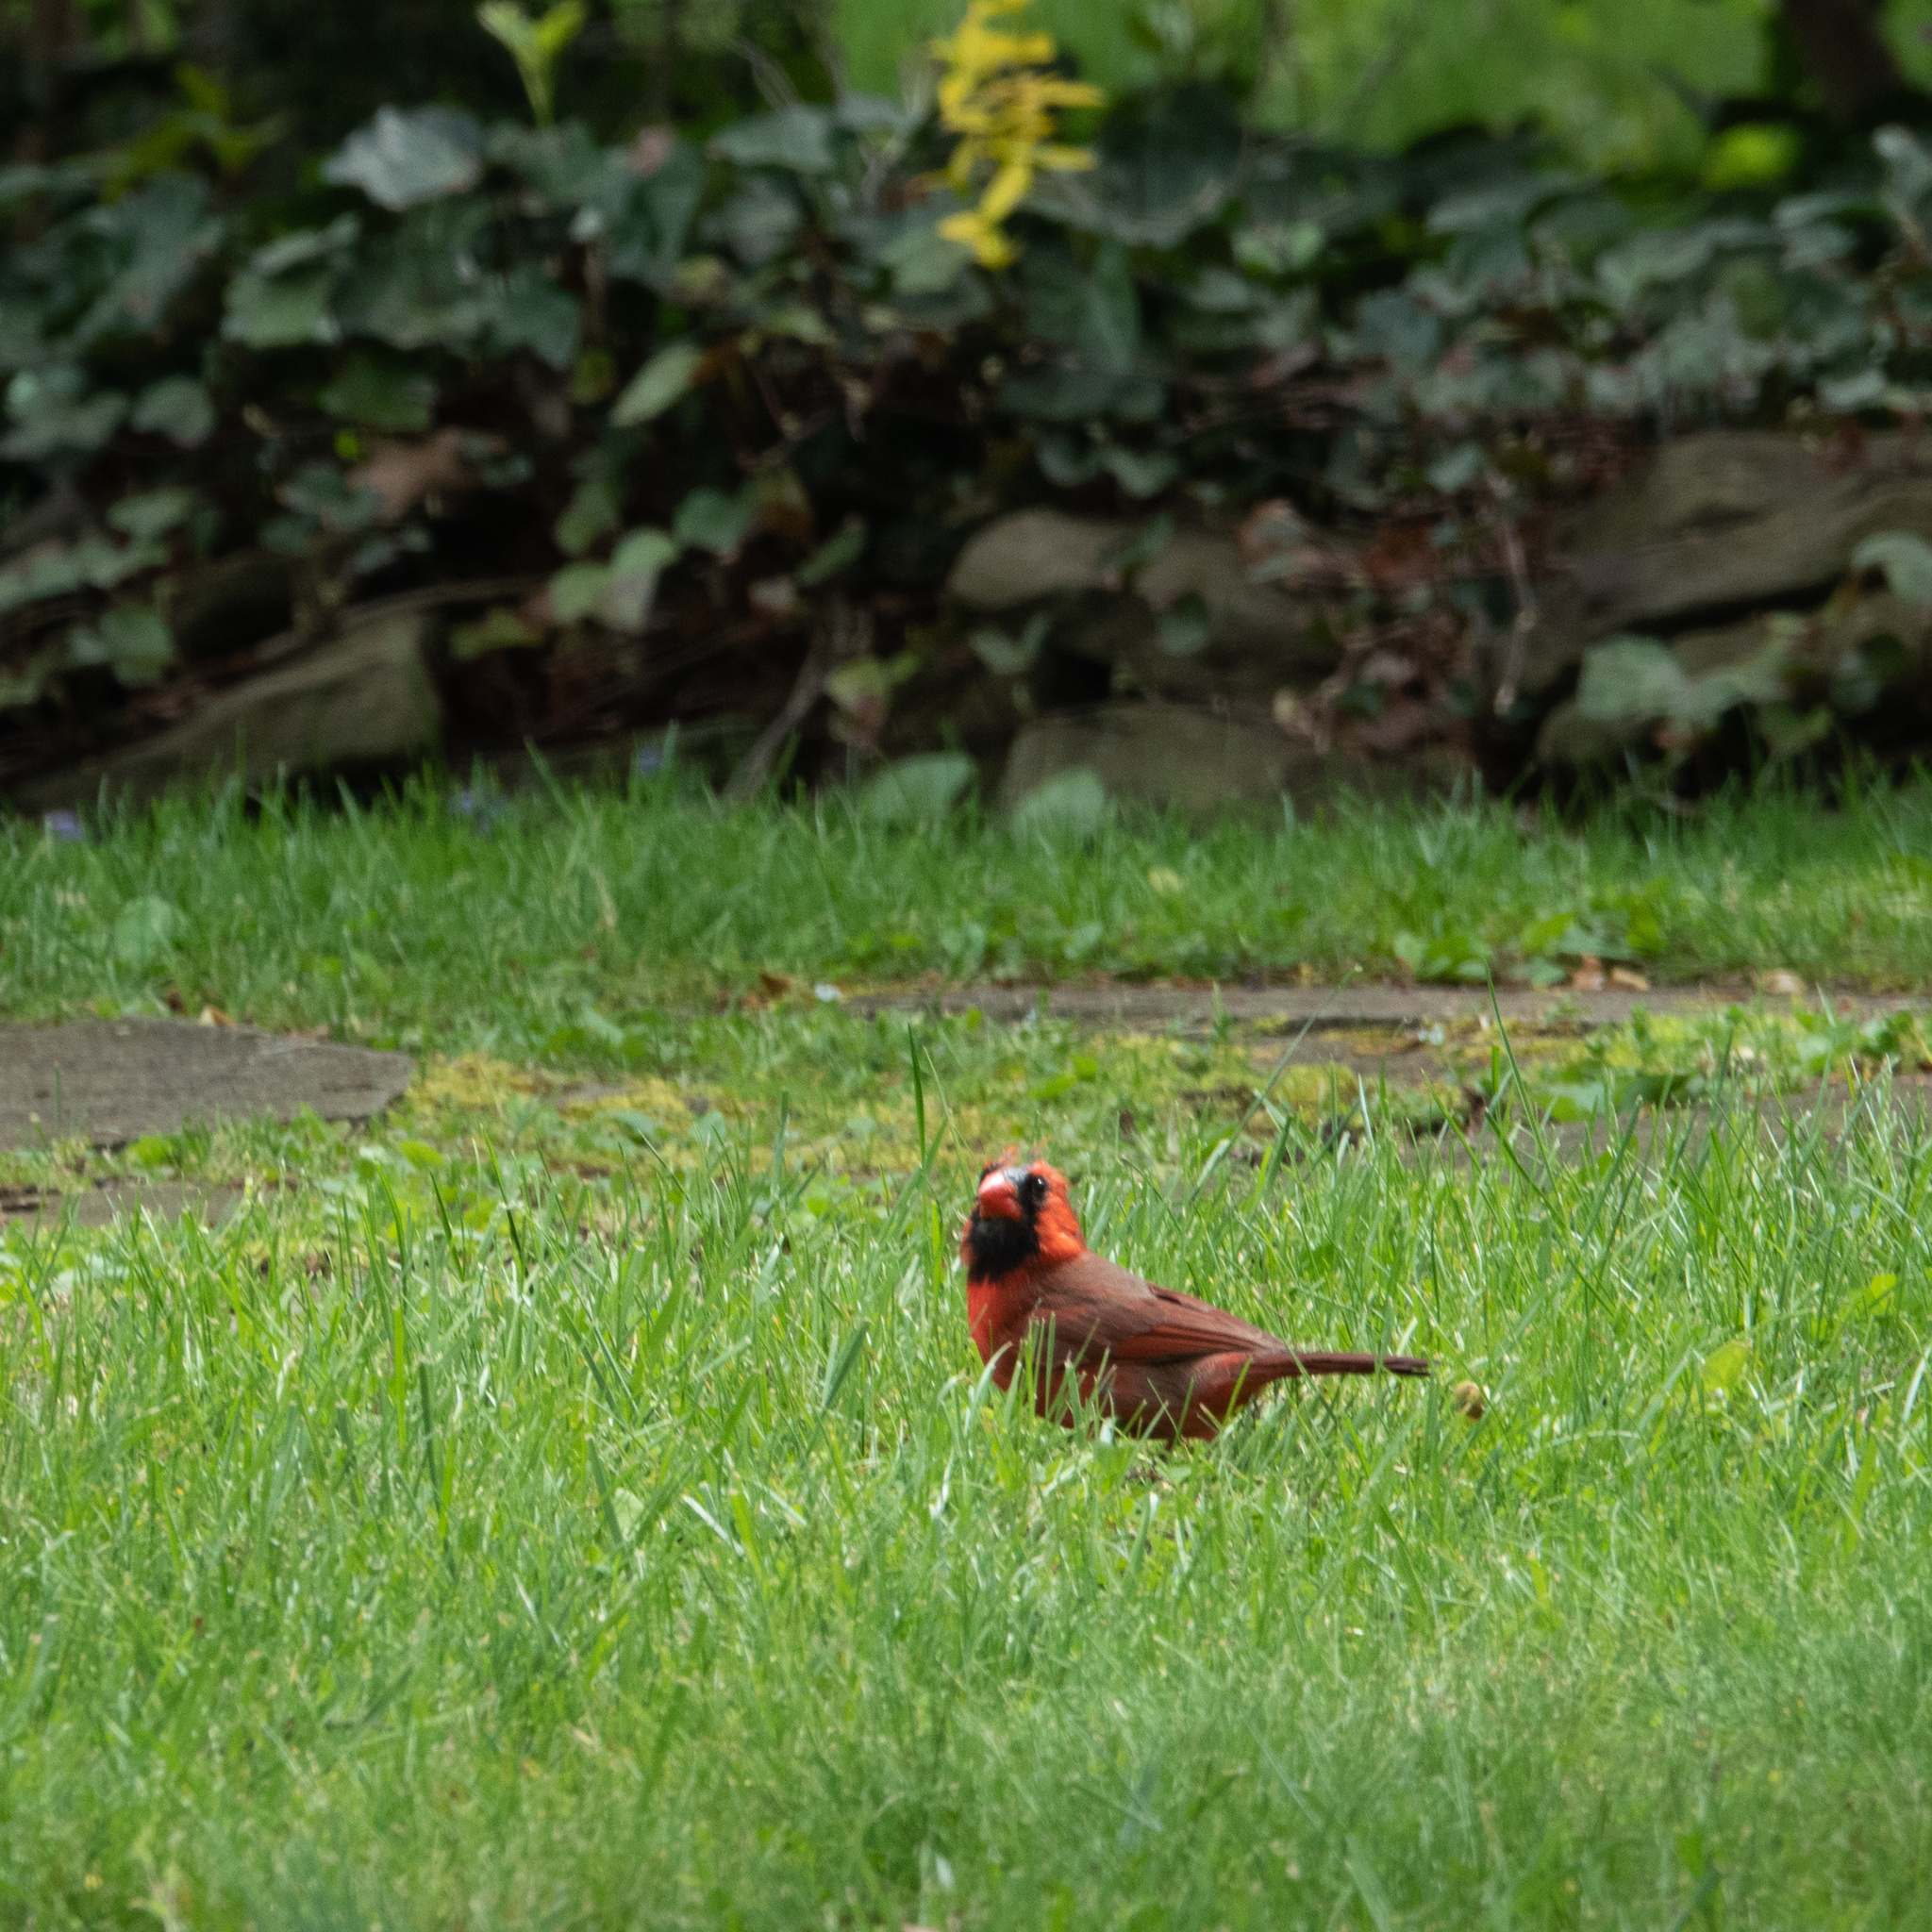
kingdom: Animalia
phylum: Chordata
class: Aves
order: Passeriformes
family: Cardinalidae
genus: Cardinalis
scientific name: Cardinalis cardinalis
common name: Northern cardinal
